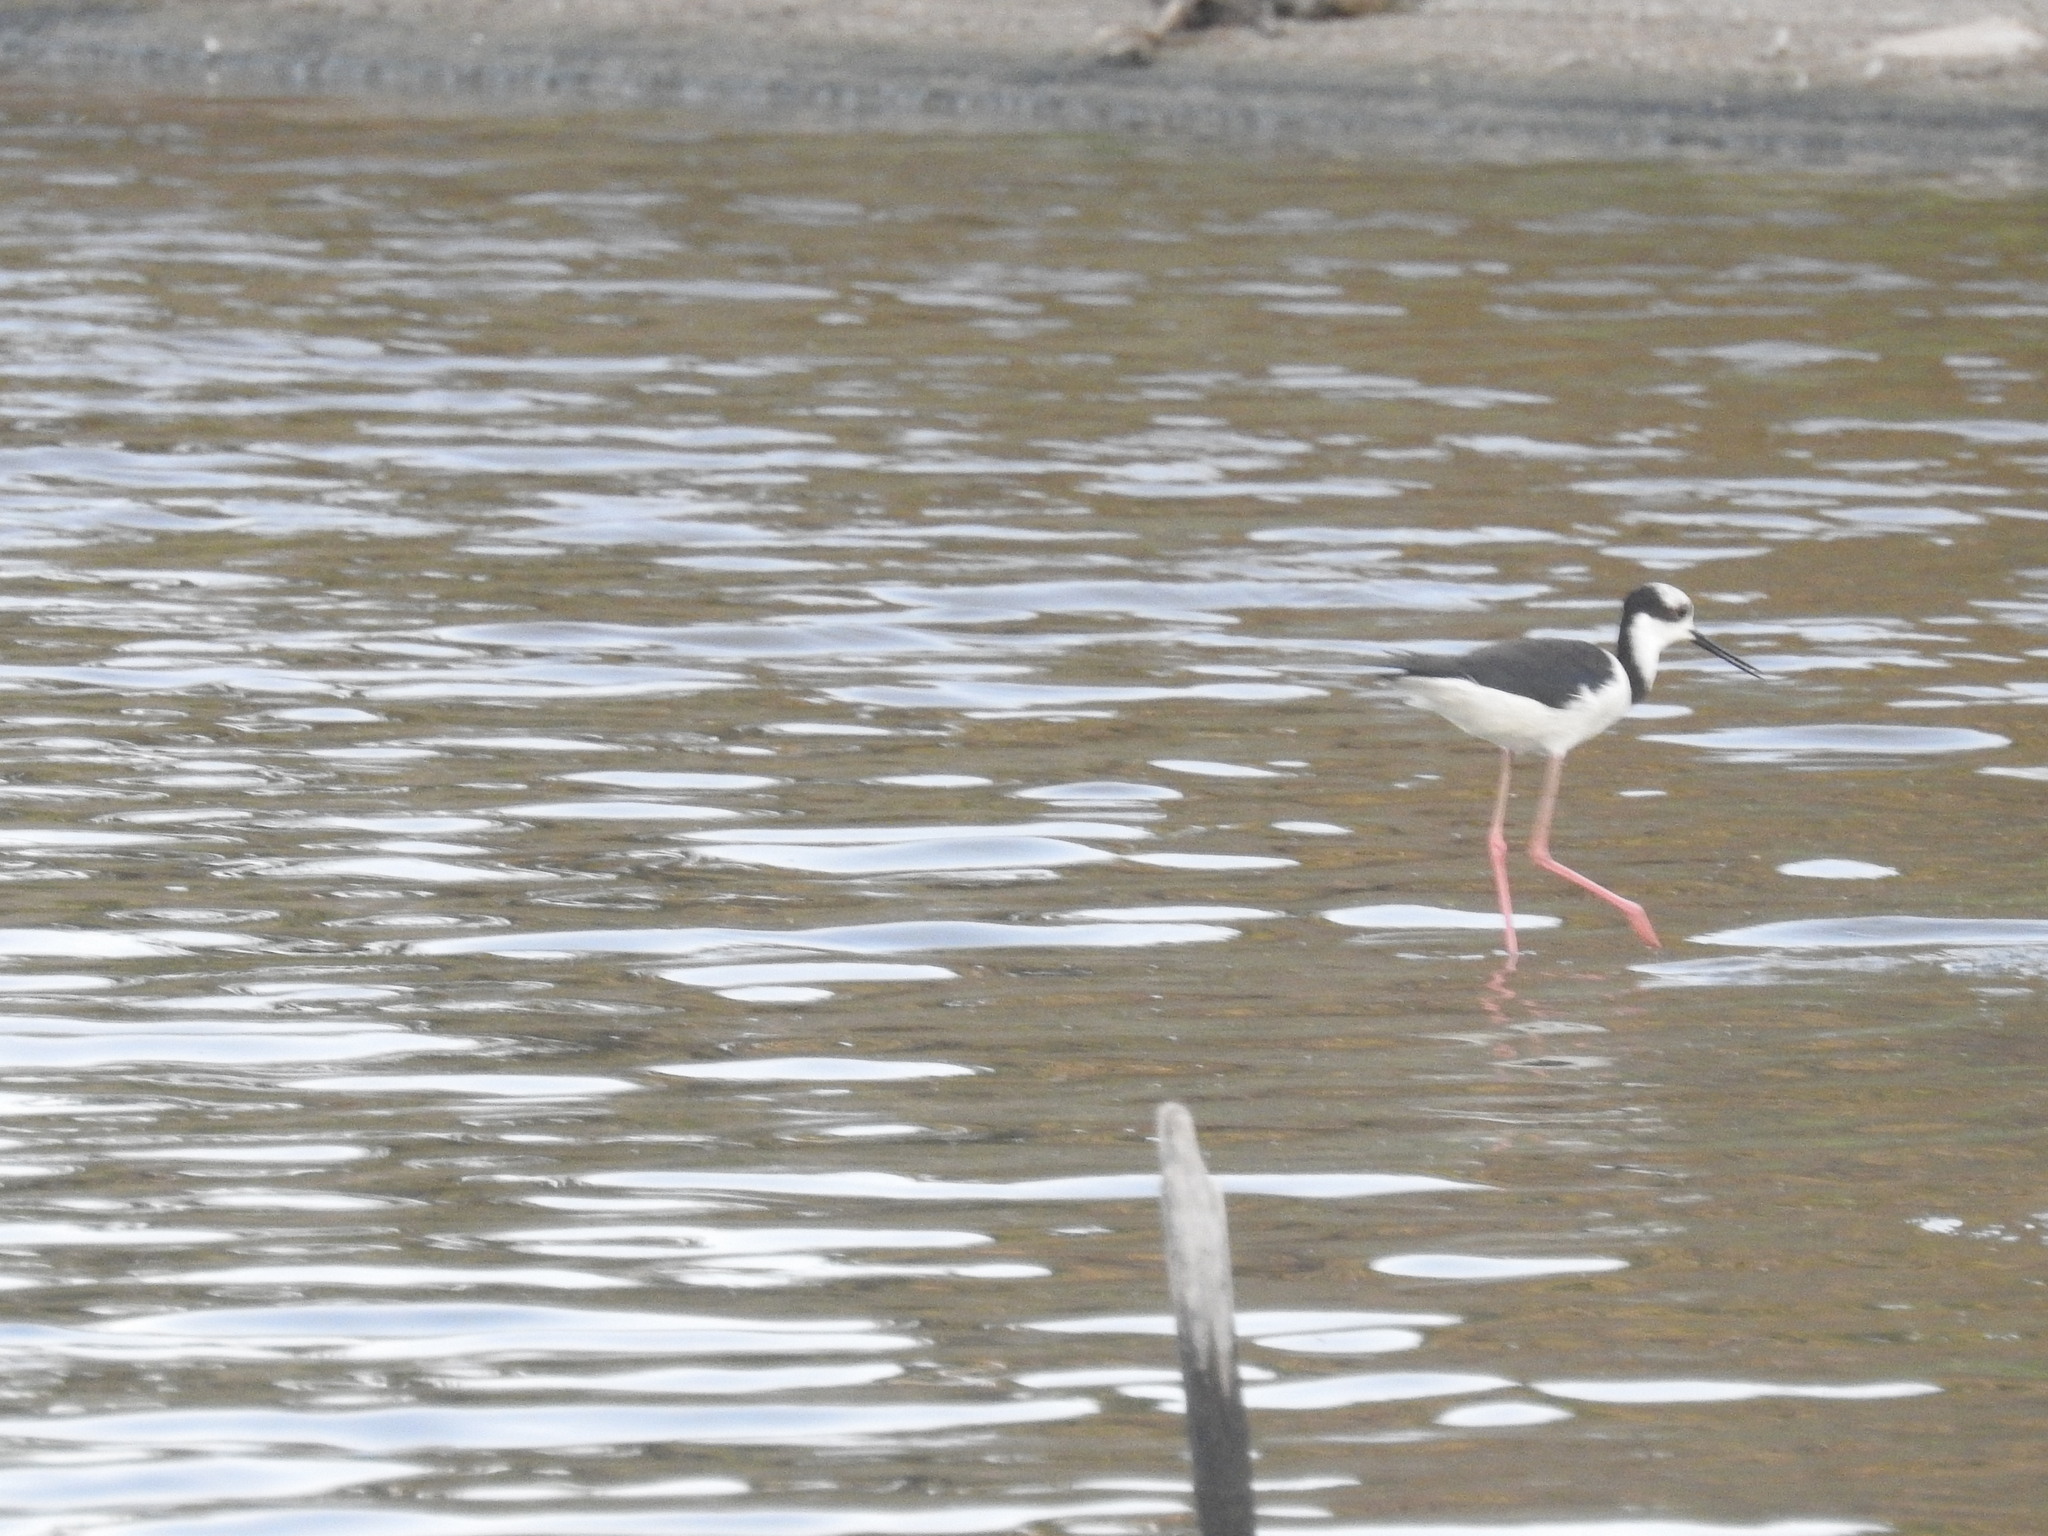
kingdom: Animalia
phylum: Chordata
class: Aves
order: Charadriiformes
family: Recurvirostridae
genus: Himantopus
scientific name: Himantopus mexicanus
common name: Black-necked stilt
